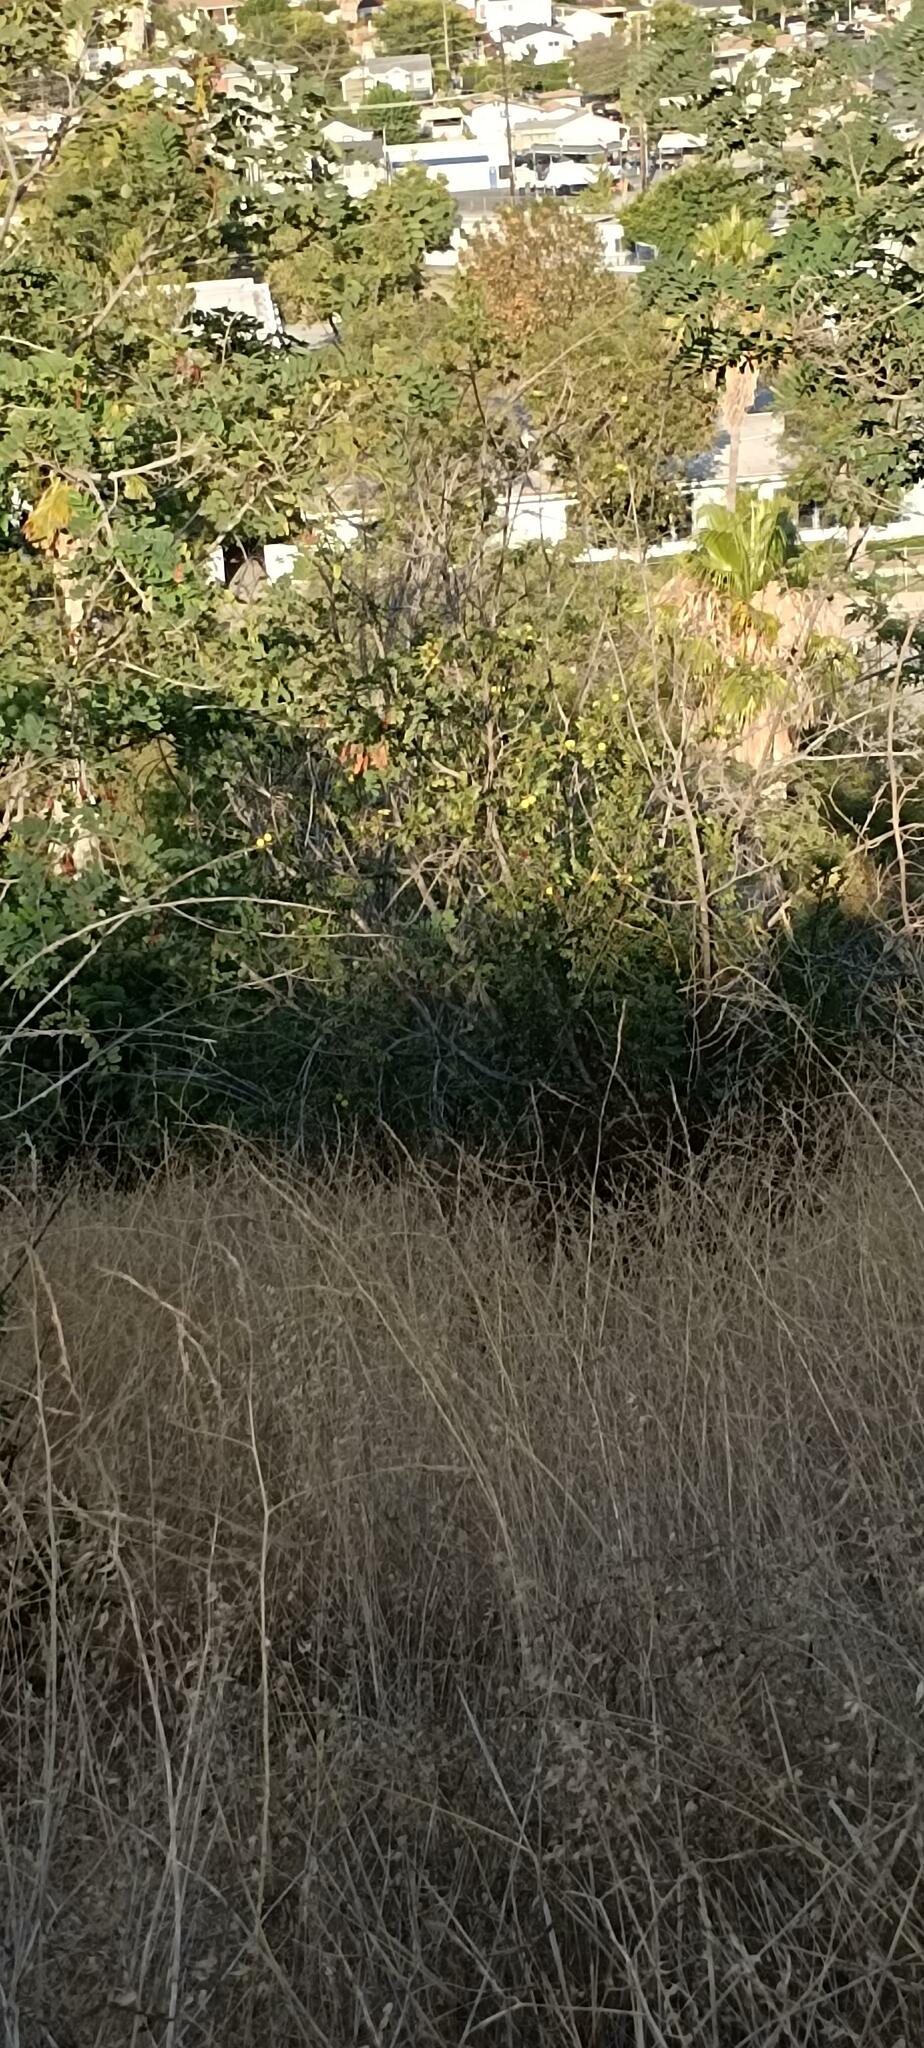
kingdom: Plantae
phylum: Tracheophyta
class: Magnoliopsida
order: Fagales
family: Juglandaceae
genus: Juglans
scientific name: Juglans californica
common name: Southern california black walnut
